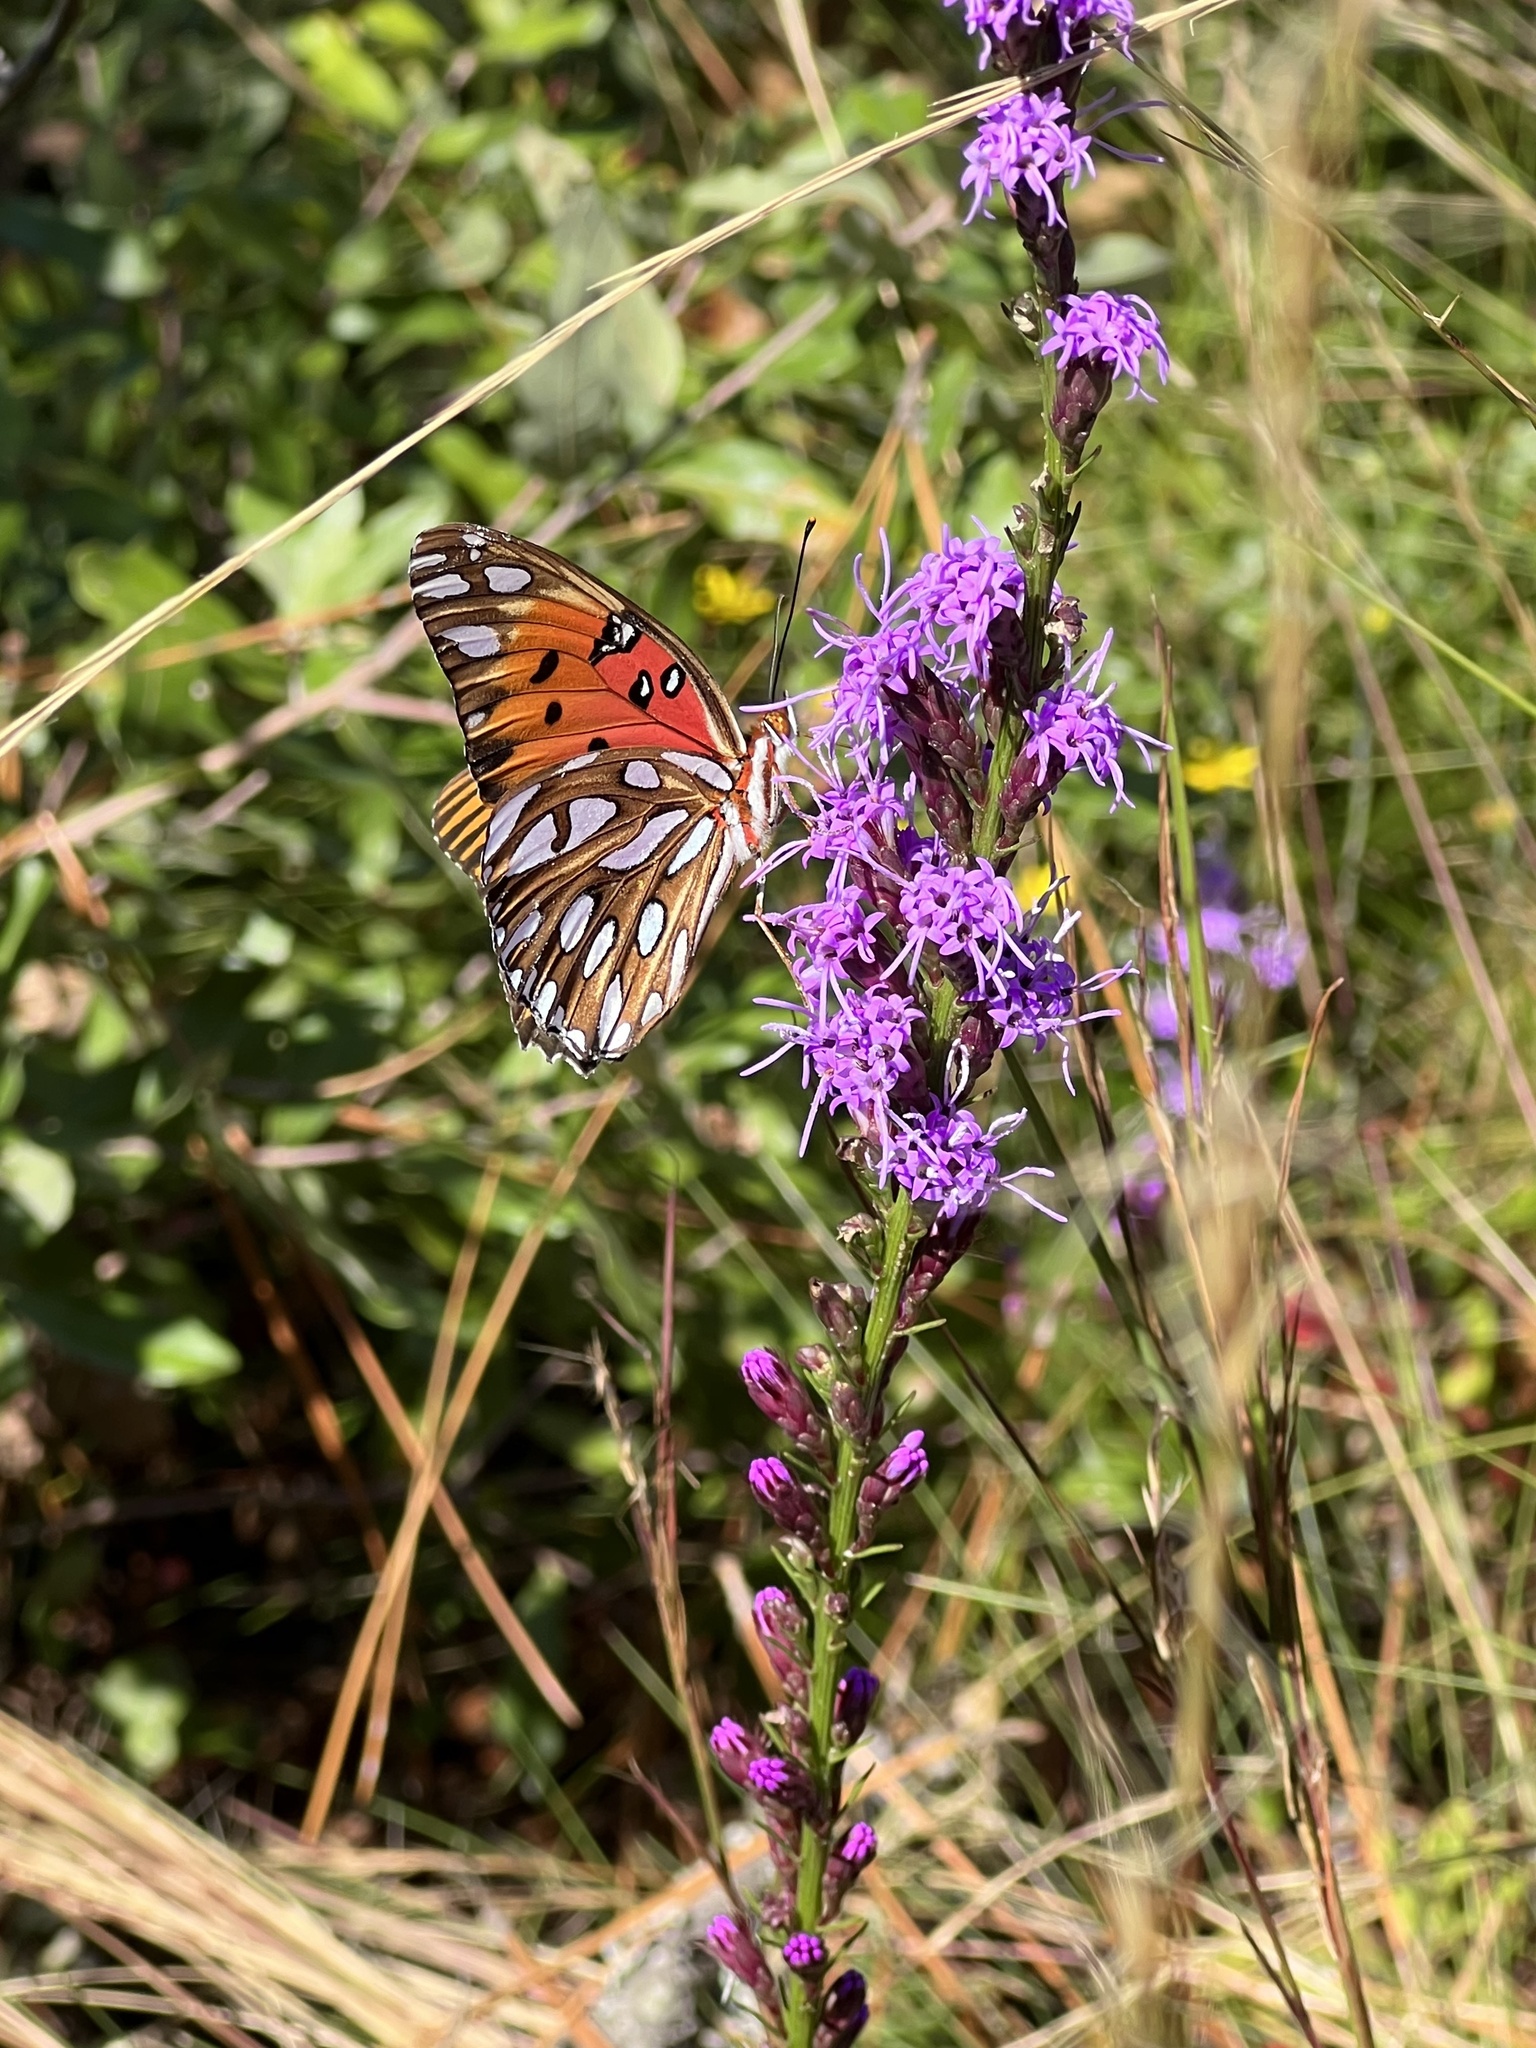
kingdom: Animalia
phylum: Arthropoda
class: Insecta
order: Lepidoptera
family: Nymphalidae
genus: Dione
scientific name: Dione vanillae
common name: Gulf fritillary
